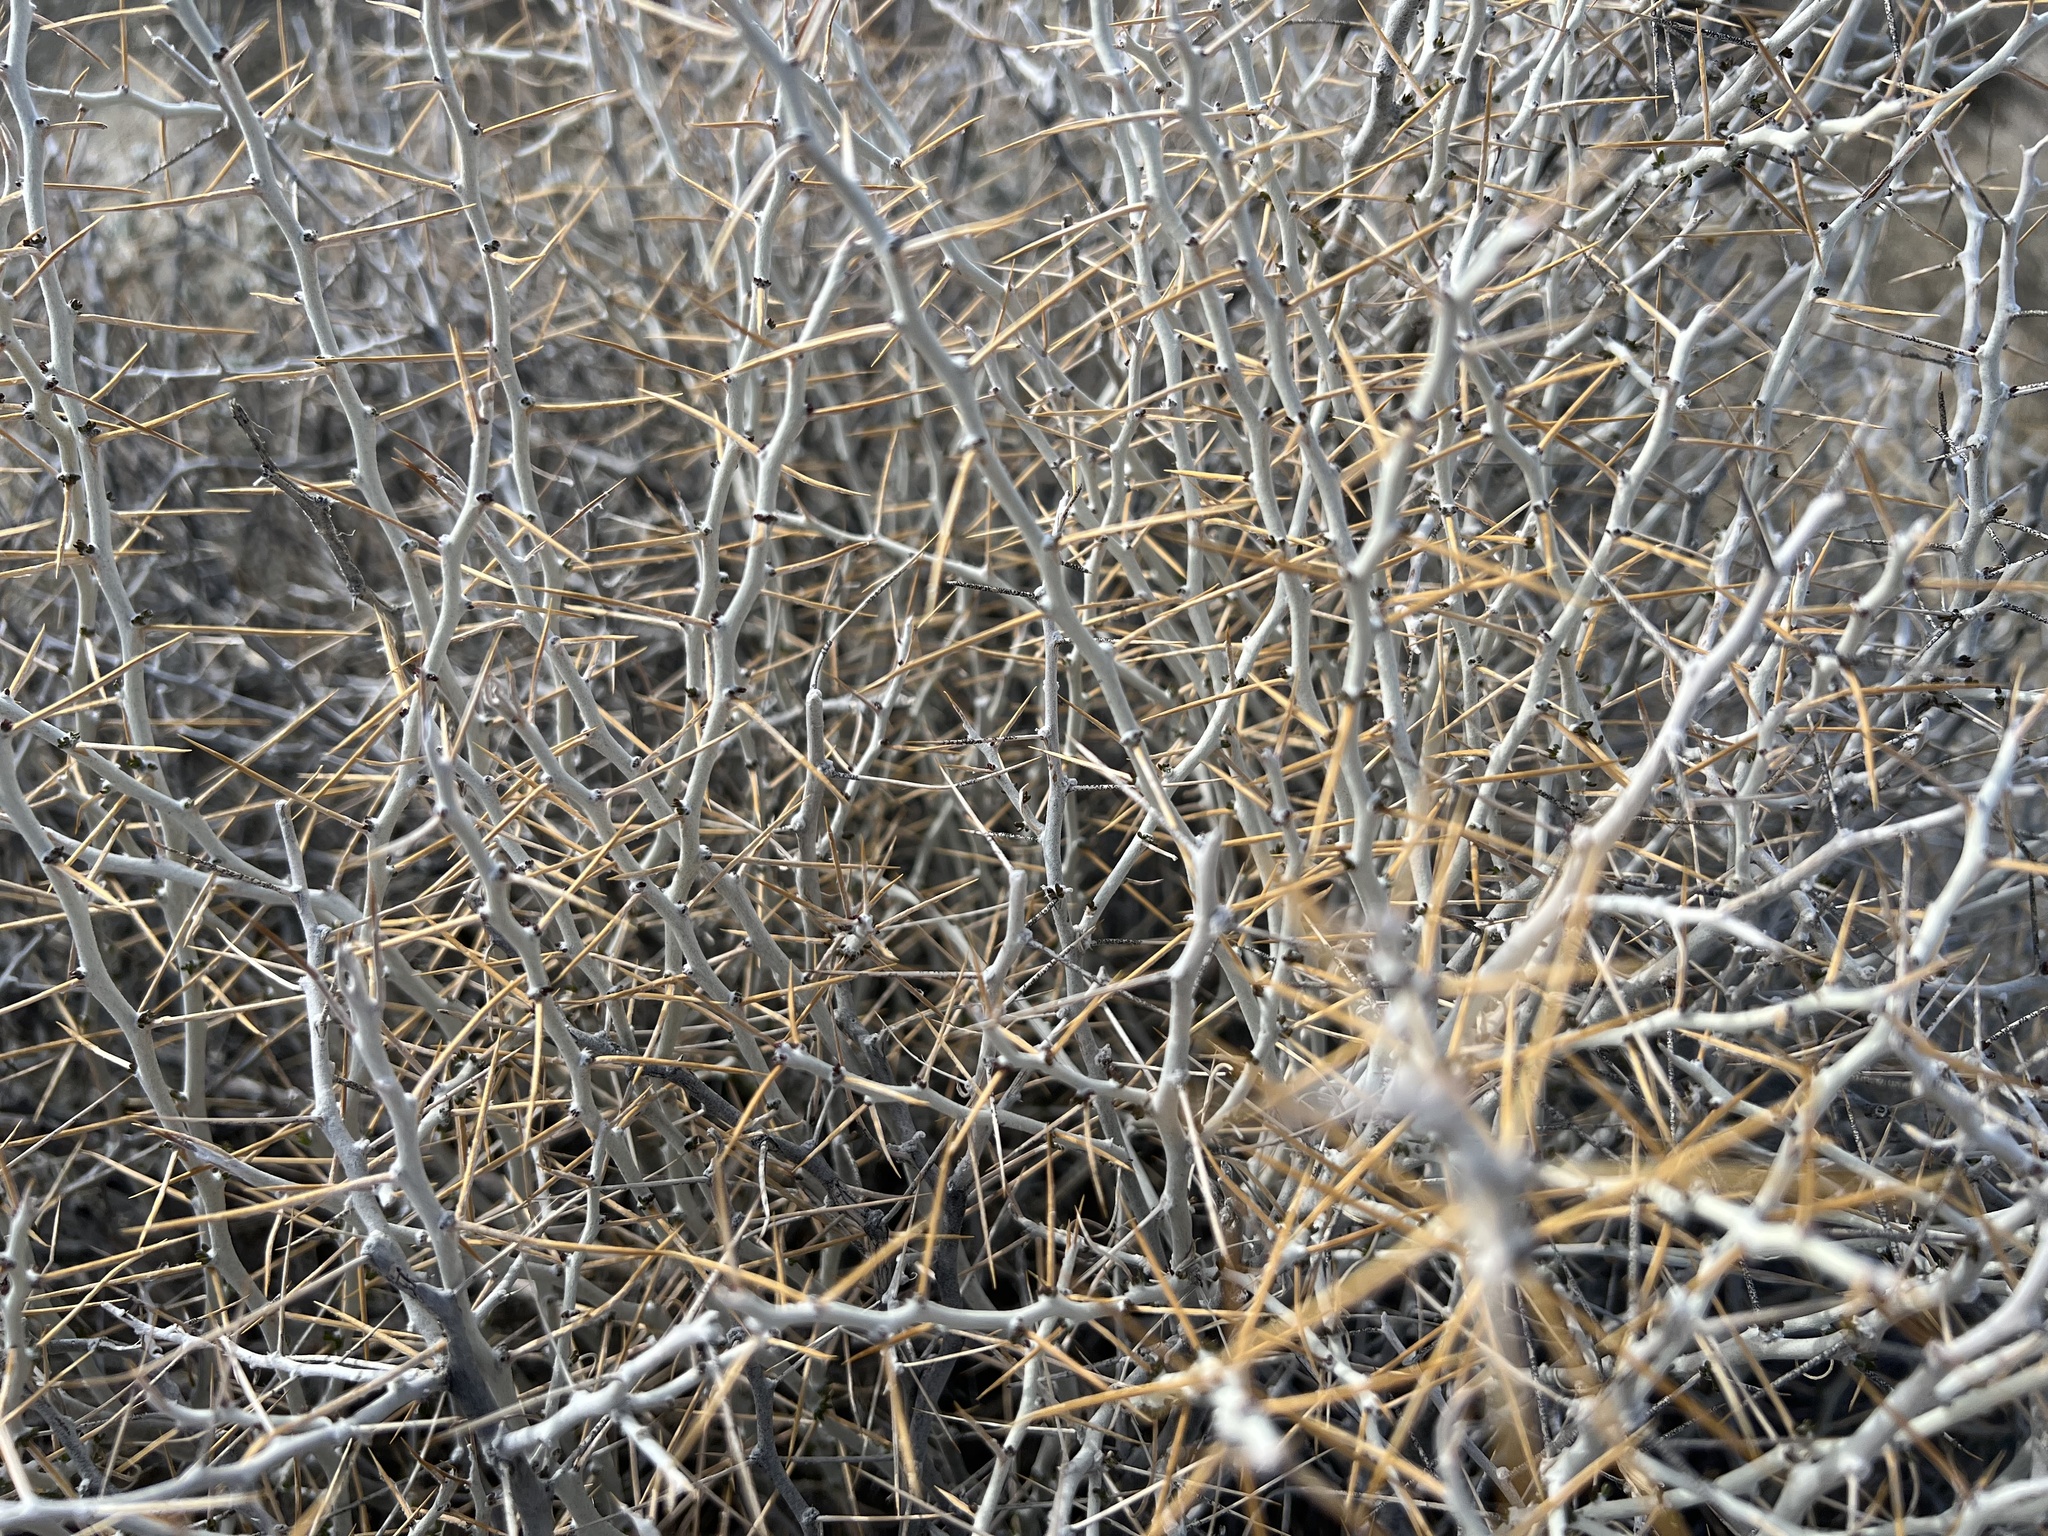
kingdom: Plantae
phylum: Tracheophyta
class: Magnoliopsida
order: Asterales
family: Asteraceae
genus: Tetradymia
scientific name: Tetradymia axillaris
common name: Long-spine horsebrush
